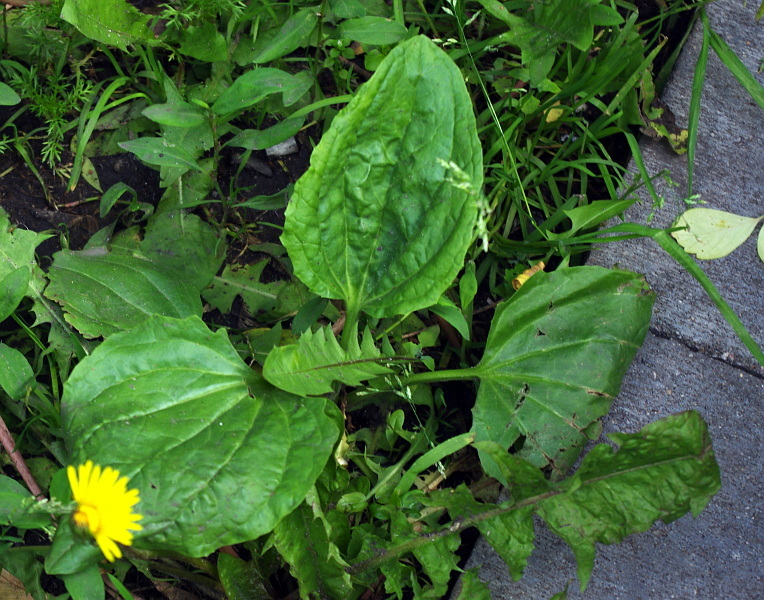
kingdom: Plantae
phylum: Tracheophyta
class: Magnoliopsida
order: Lamiales
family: Plantaginaceae
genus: Plantago
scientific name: Plantago major
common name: Common plantain
